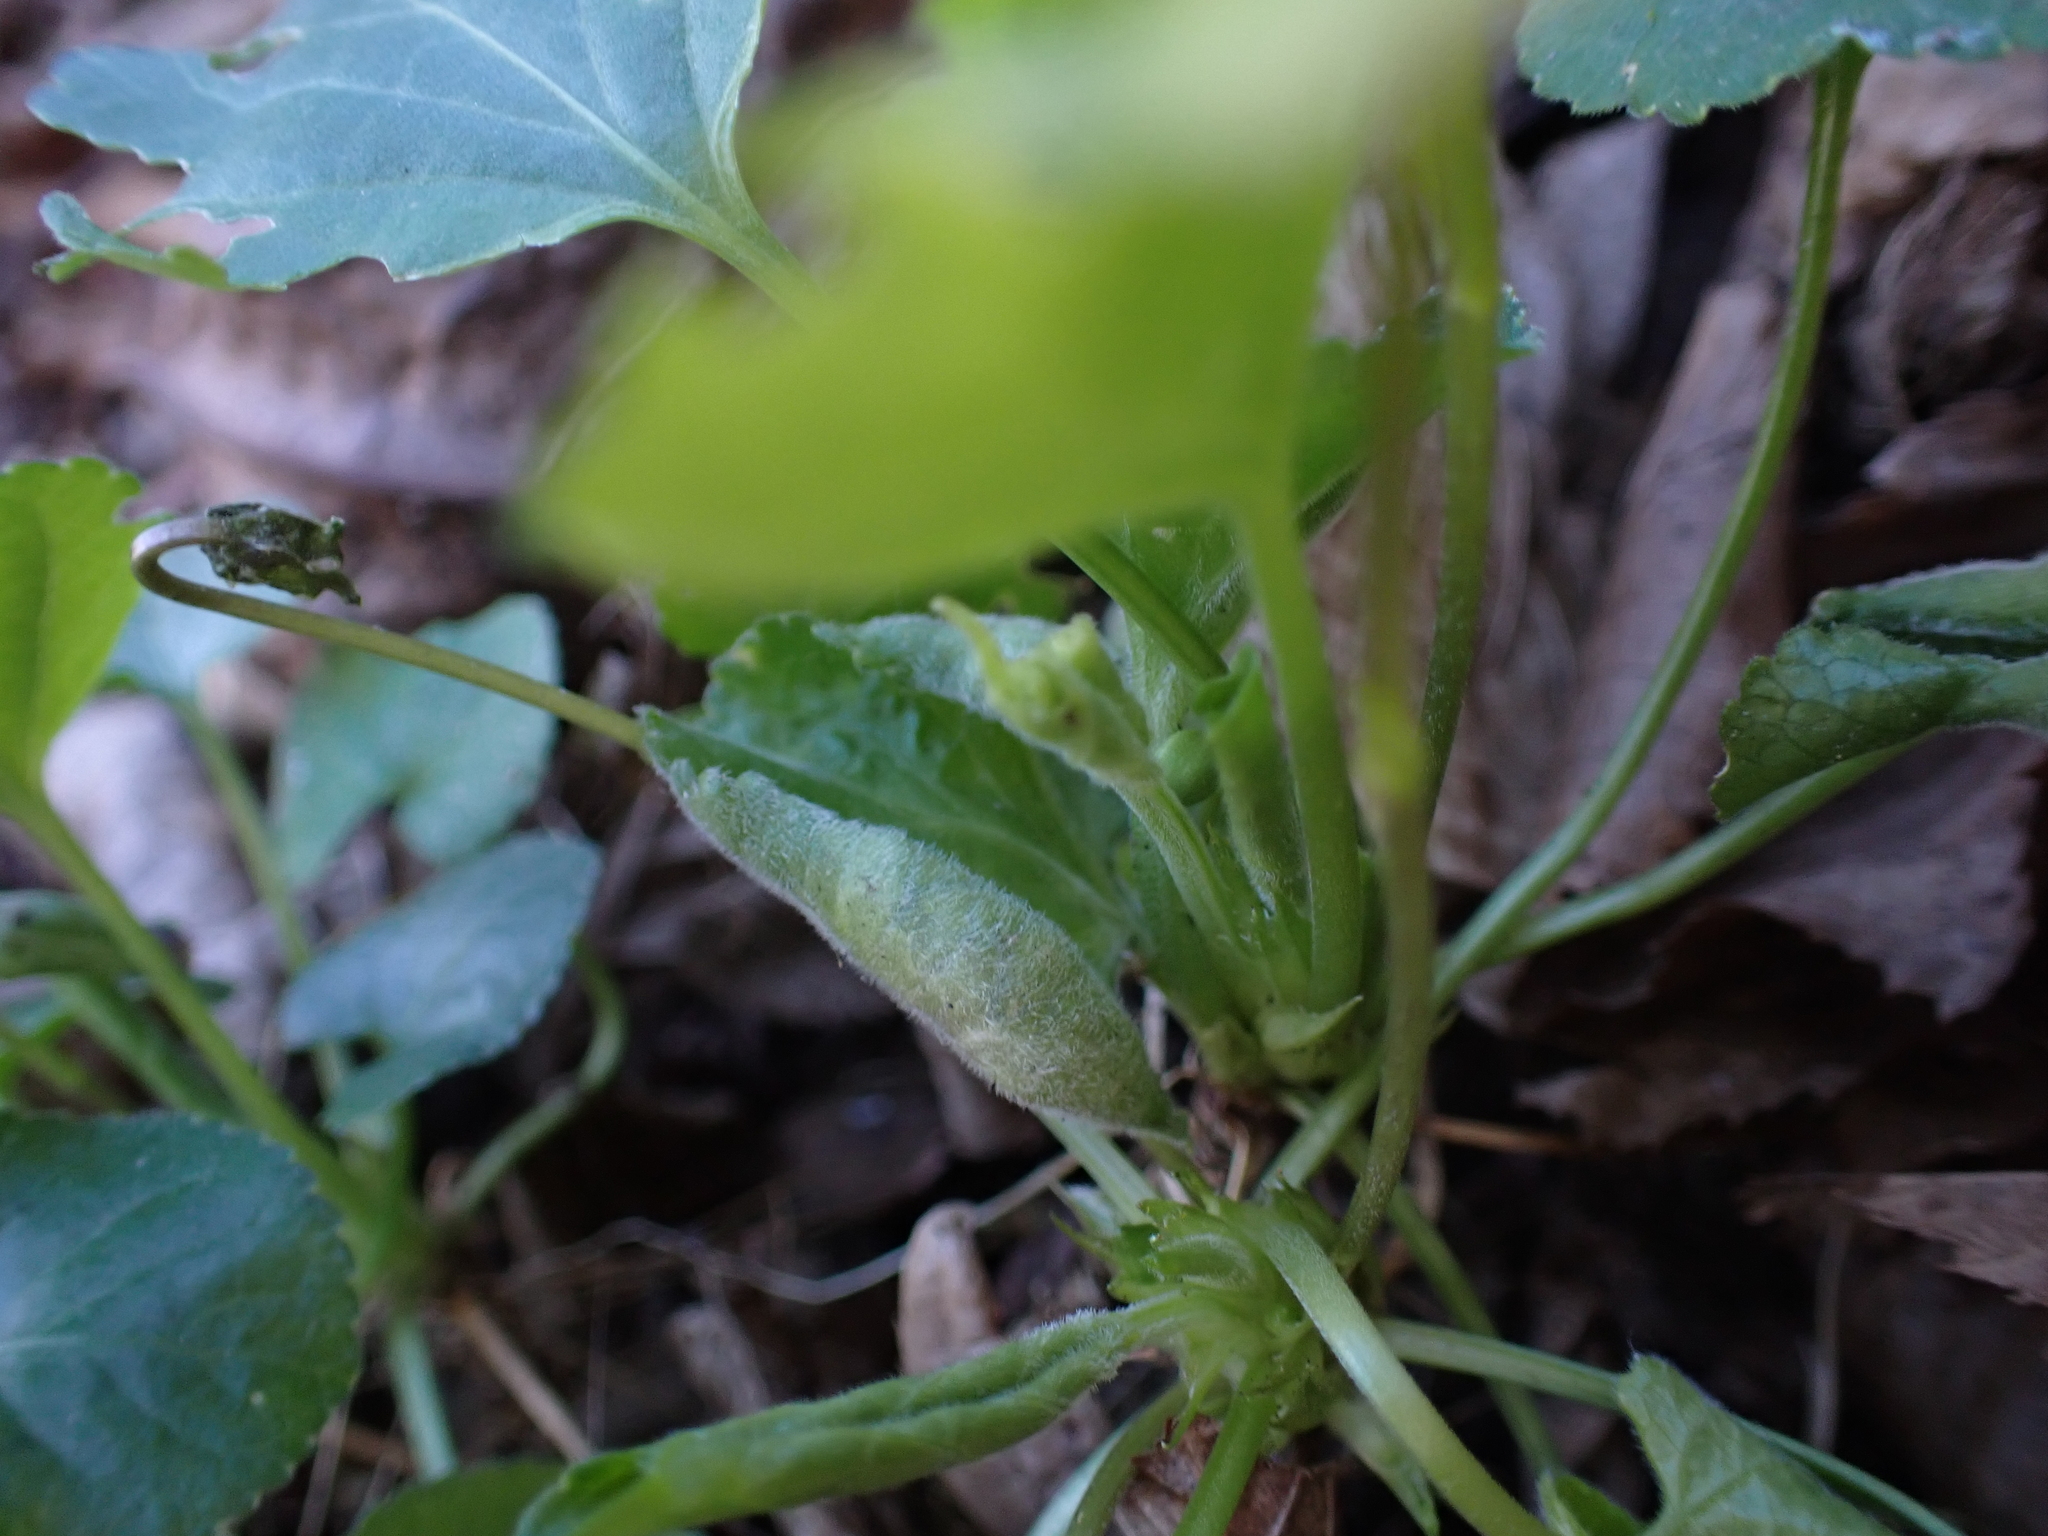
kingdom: Animalia
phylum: Arthropoda
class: Insecta
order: Diptera
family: Cecidomyiidae
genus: Dasineura
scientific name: Dasineura odoratae
